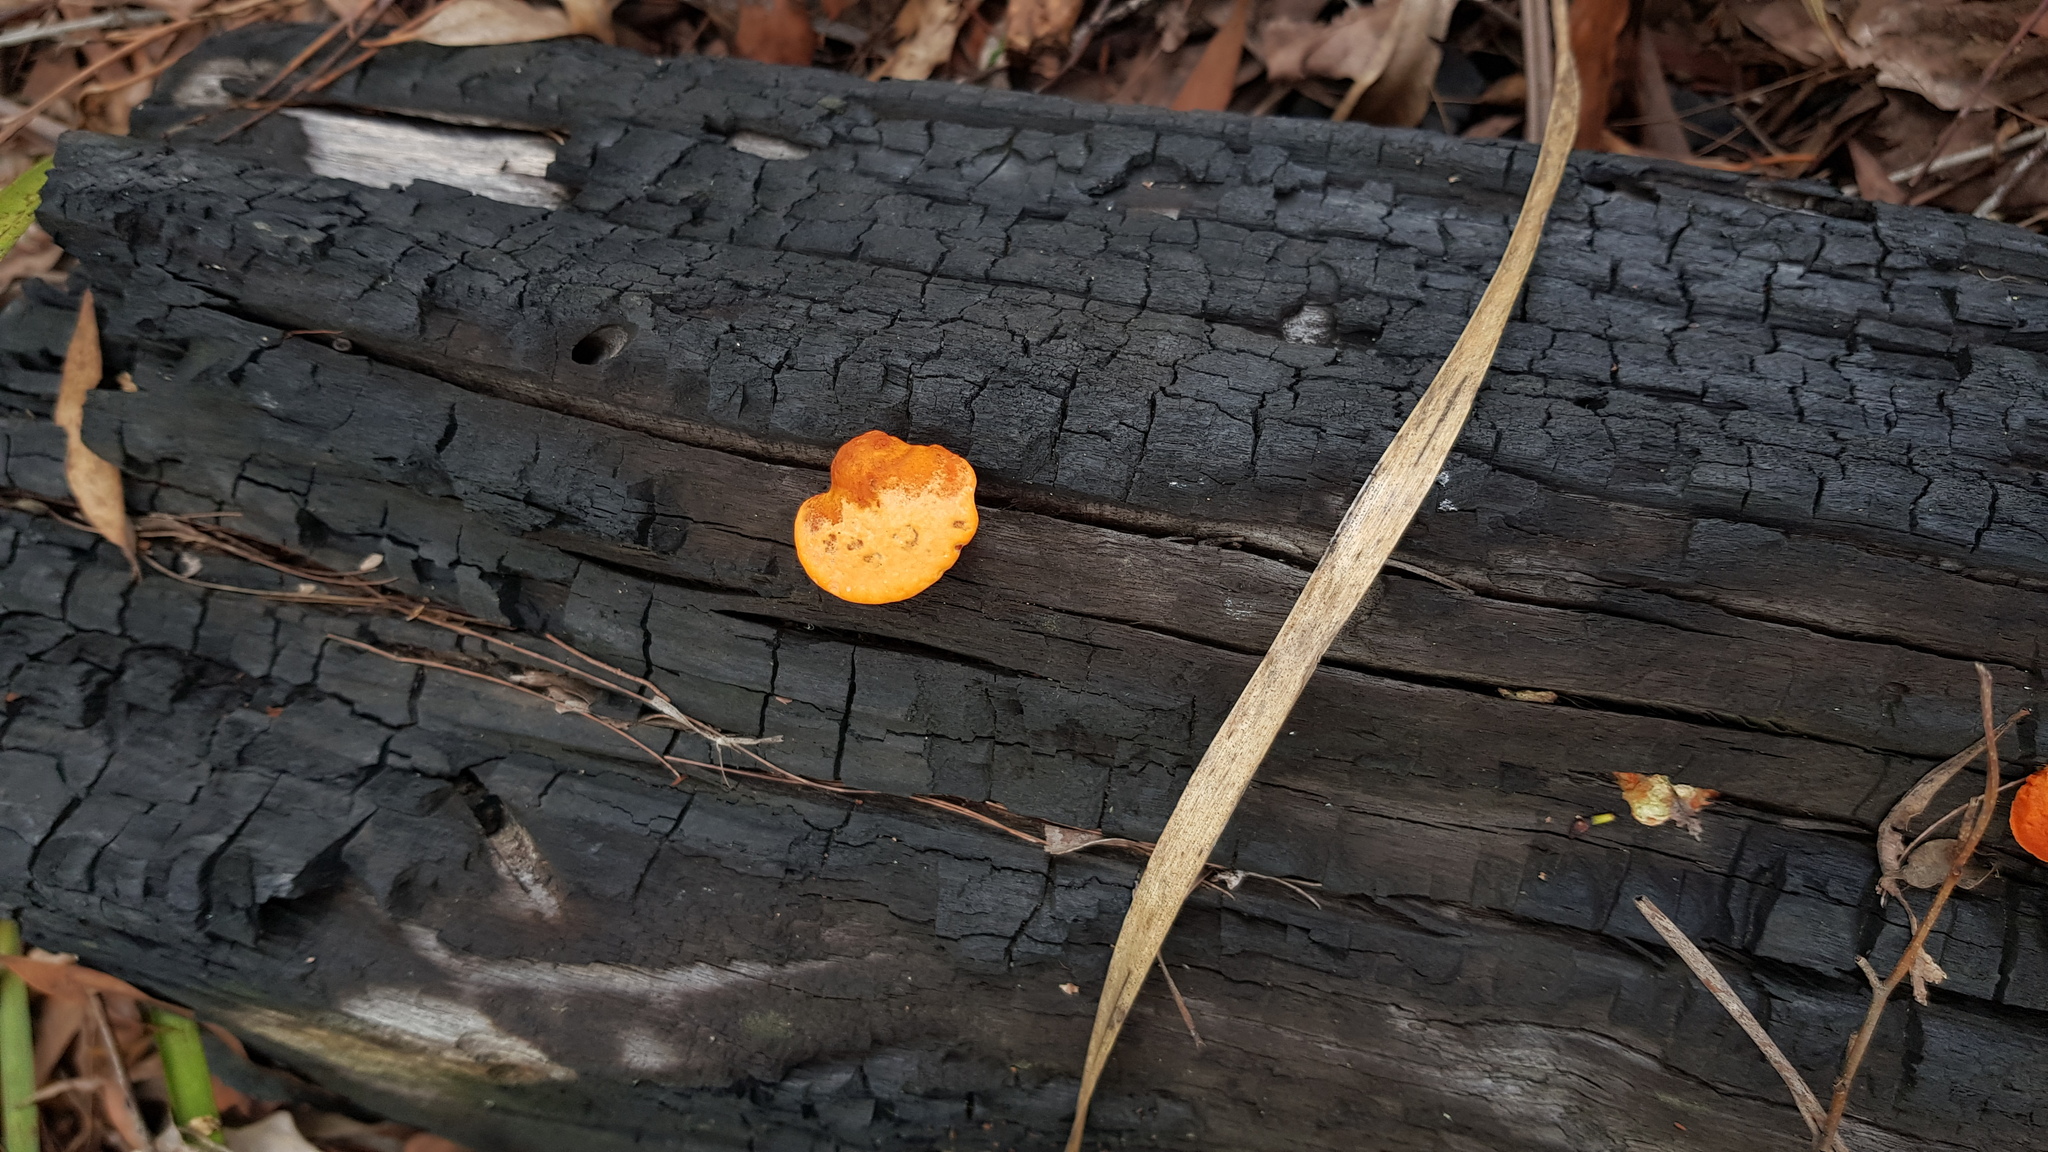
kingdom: Fungi
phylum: Basidiomycota
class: Agaricomycetes
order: Polyporales
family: Polyporaceae
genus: Trametes
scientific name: Trametes coccinea
